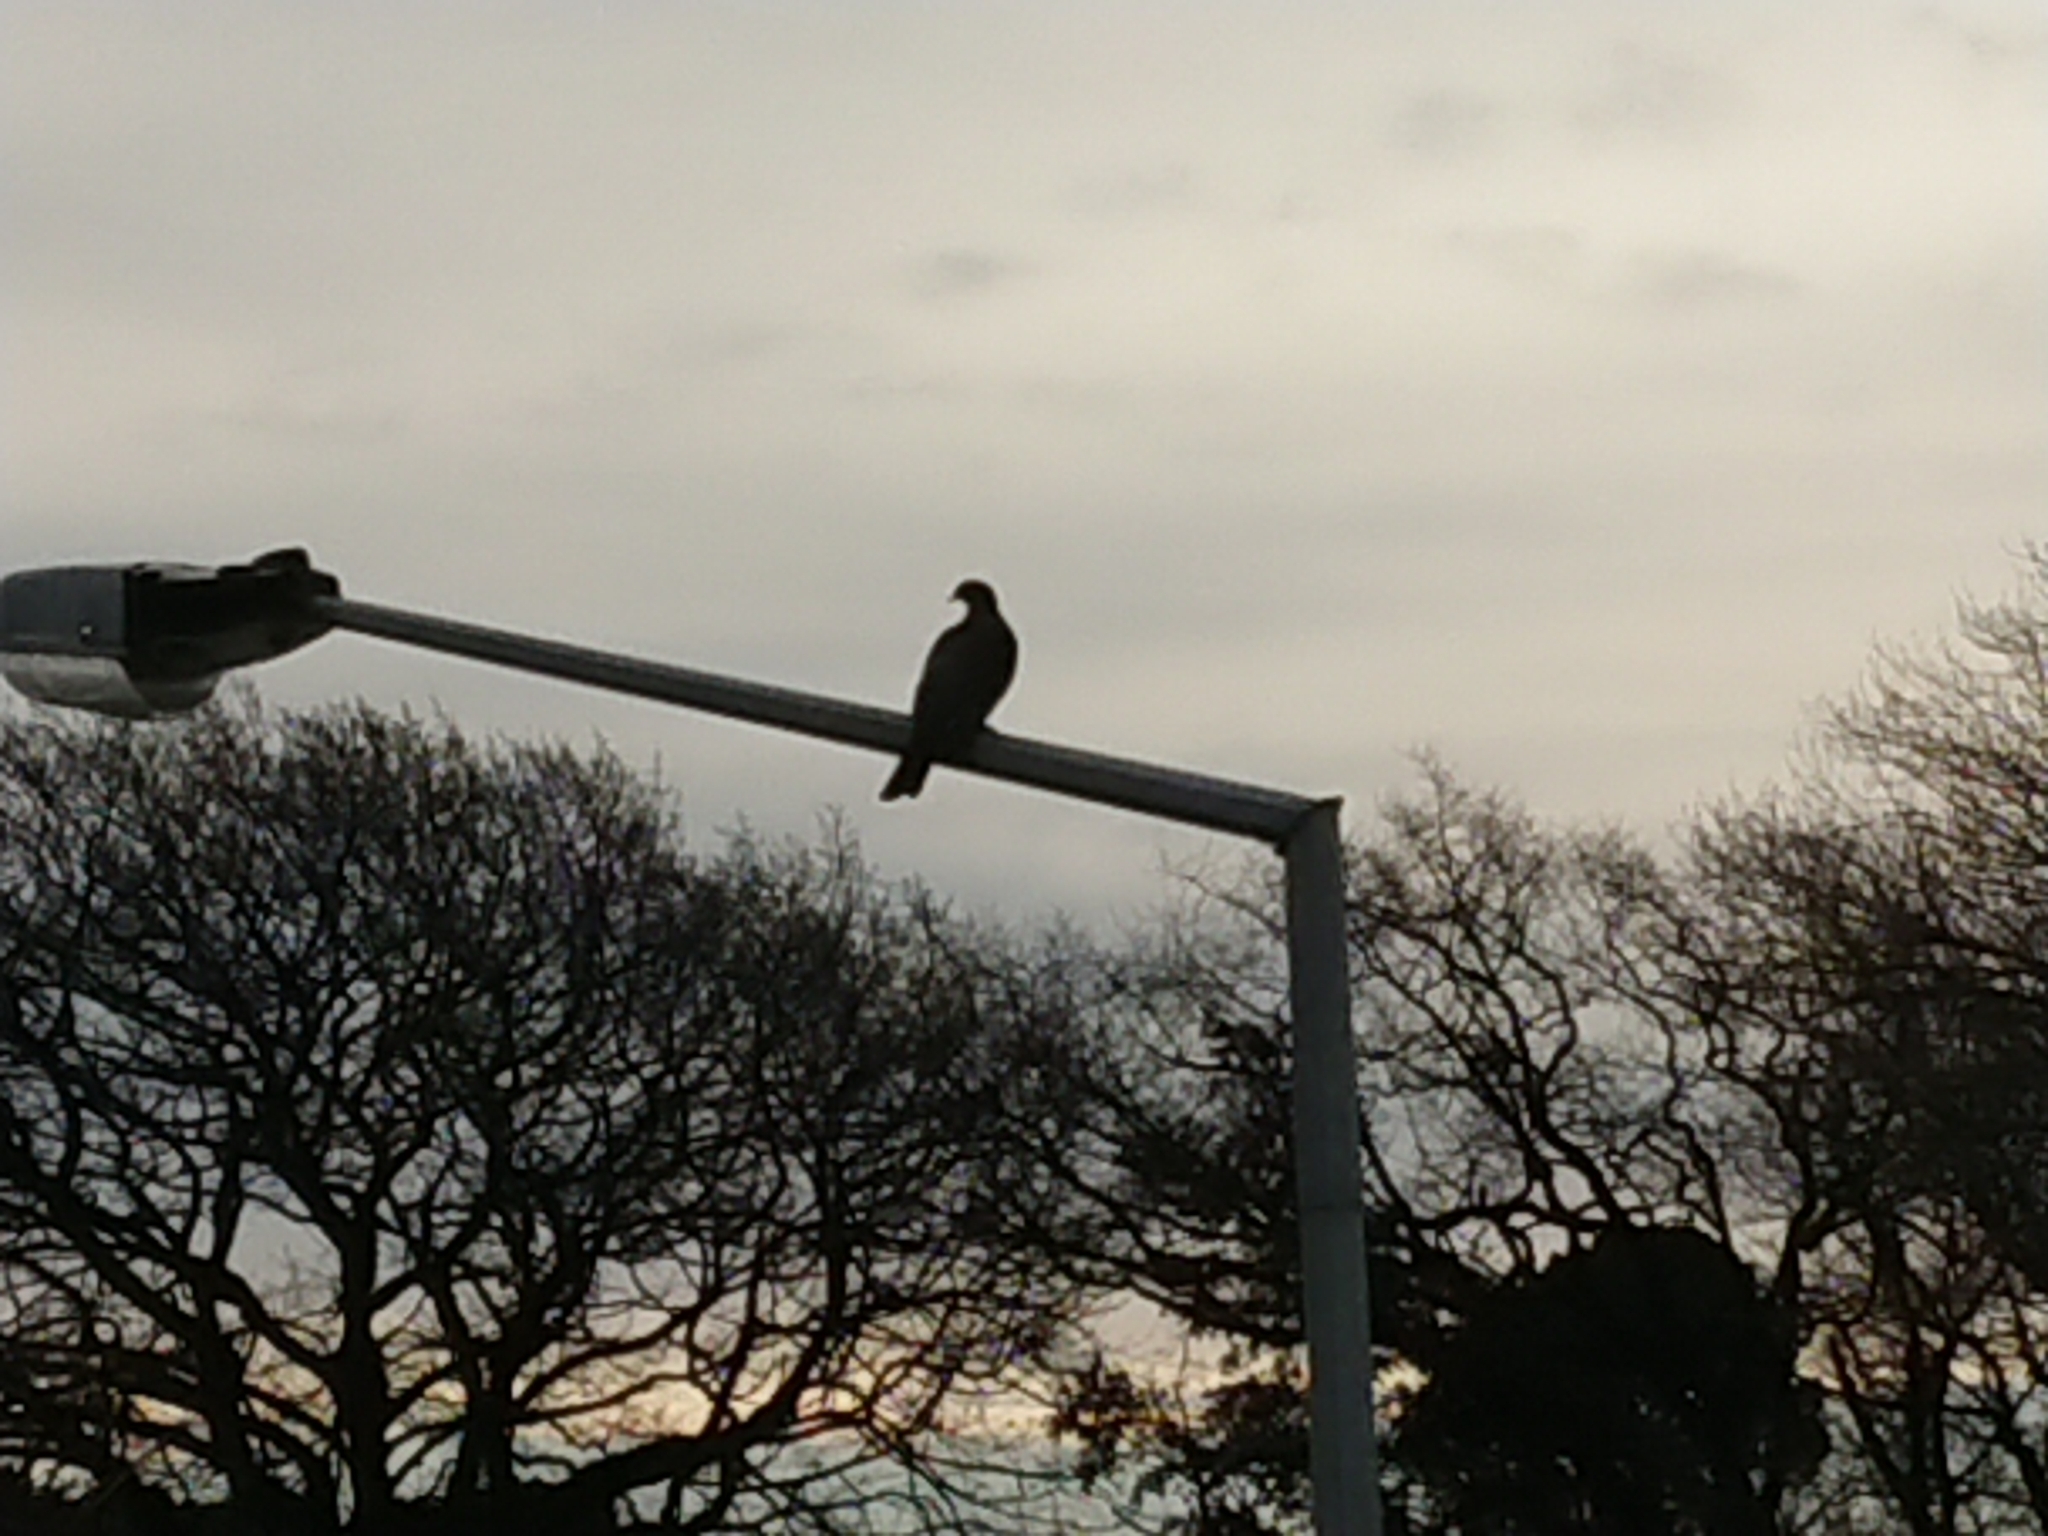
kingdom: Animalia
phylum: Chordata
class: Aves
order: Columbiformes
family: Columbidae
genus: Hemiphaga
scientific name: Hemiphaga novaeseelandiae
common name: New zealand pigeon
